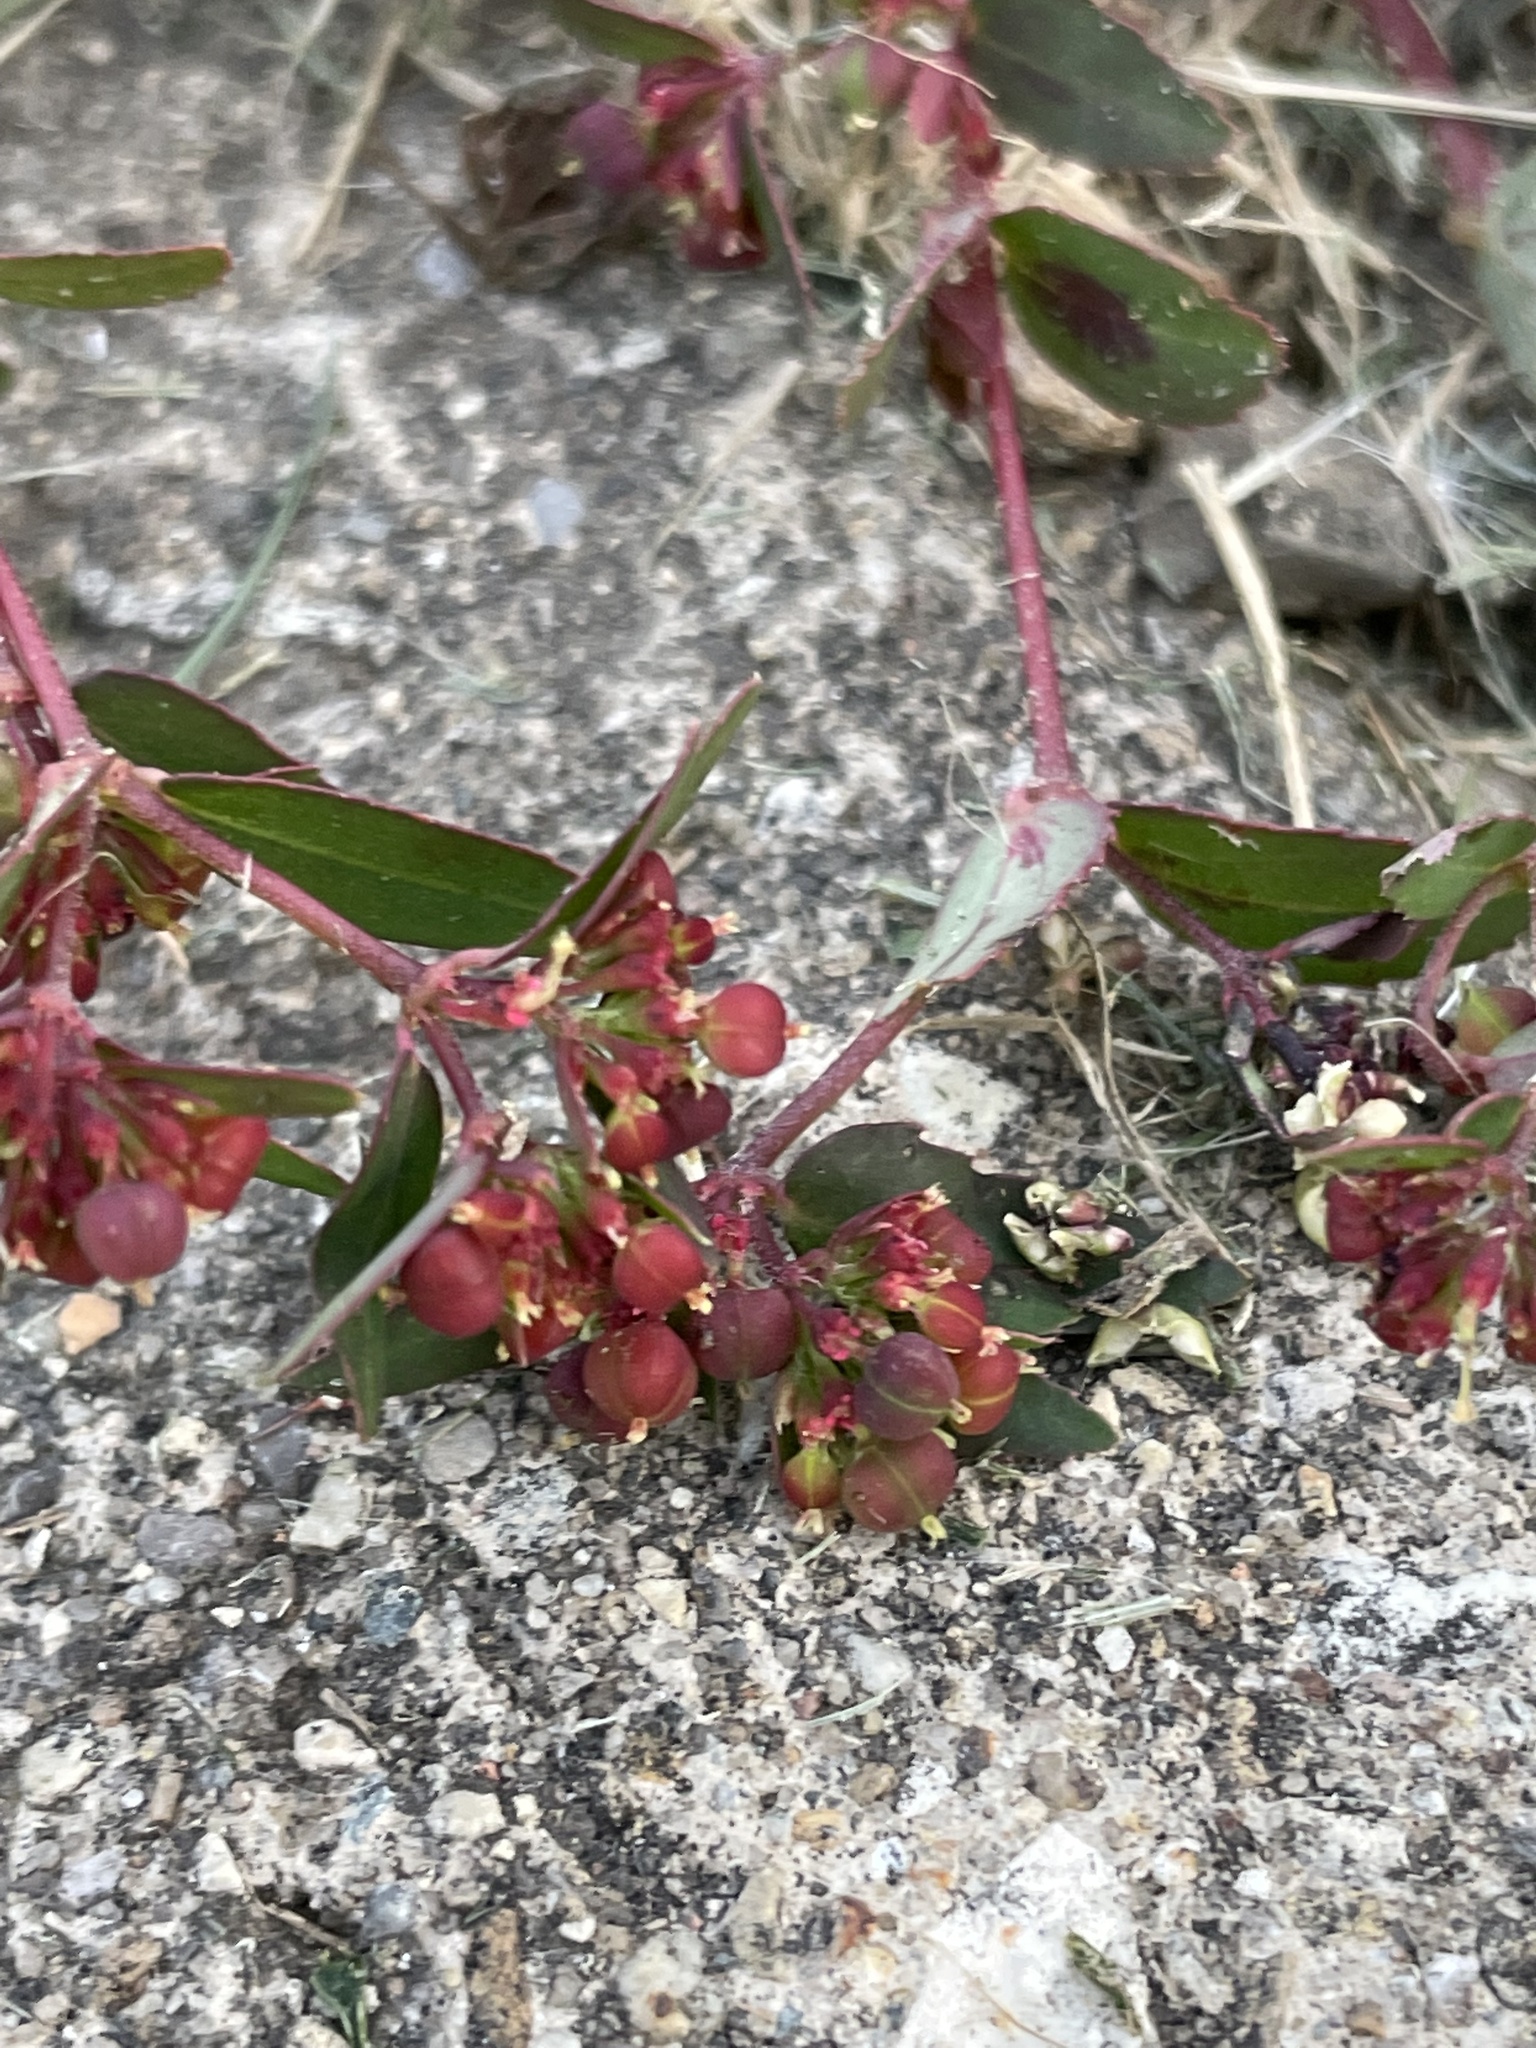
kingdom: Plantae
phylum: Tracheophyta
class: Magnoliopsida
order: Malpighiales
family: Euphorbiaceae
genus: Euphorbia
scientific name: Euphorbia nutans
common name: Eyebane
